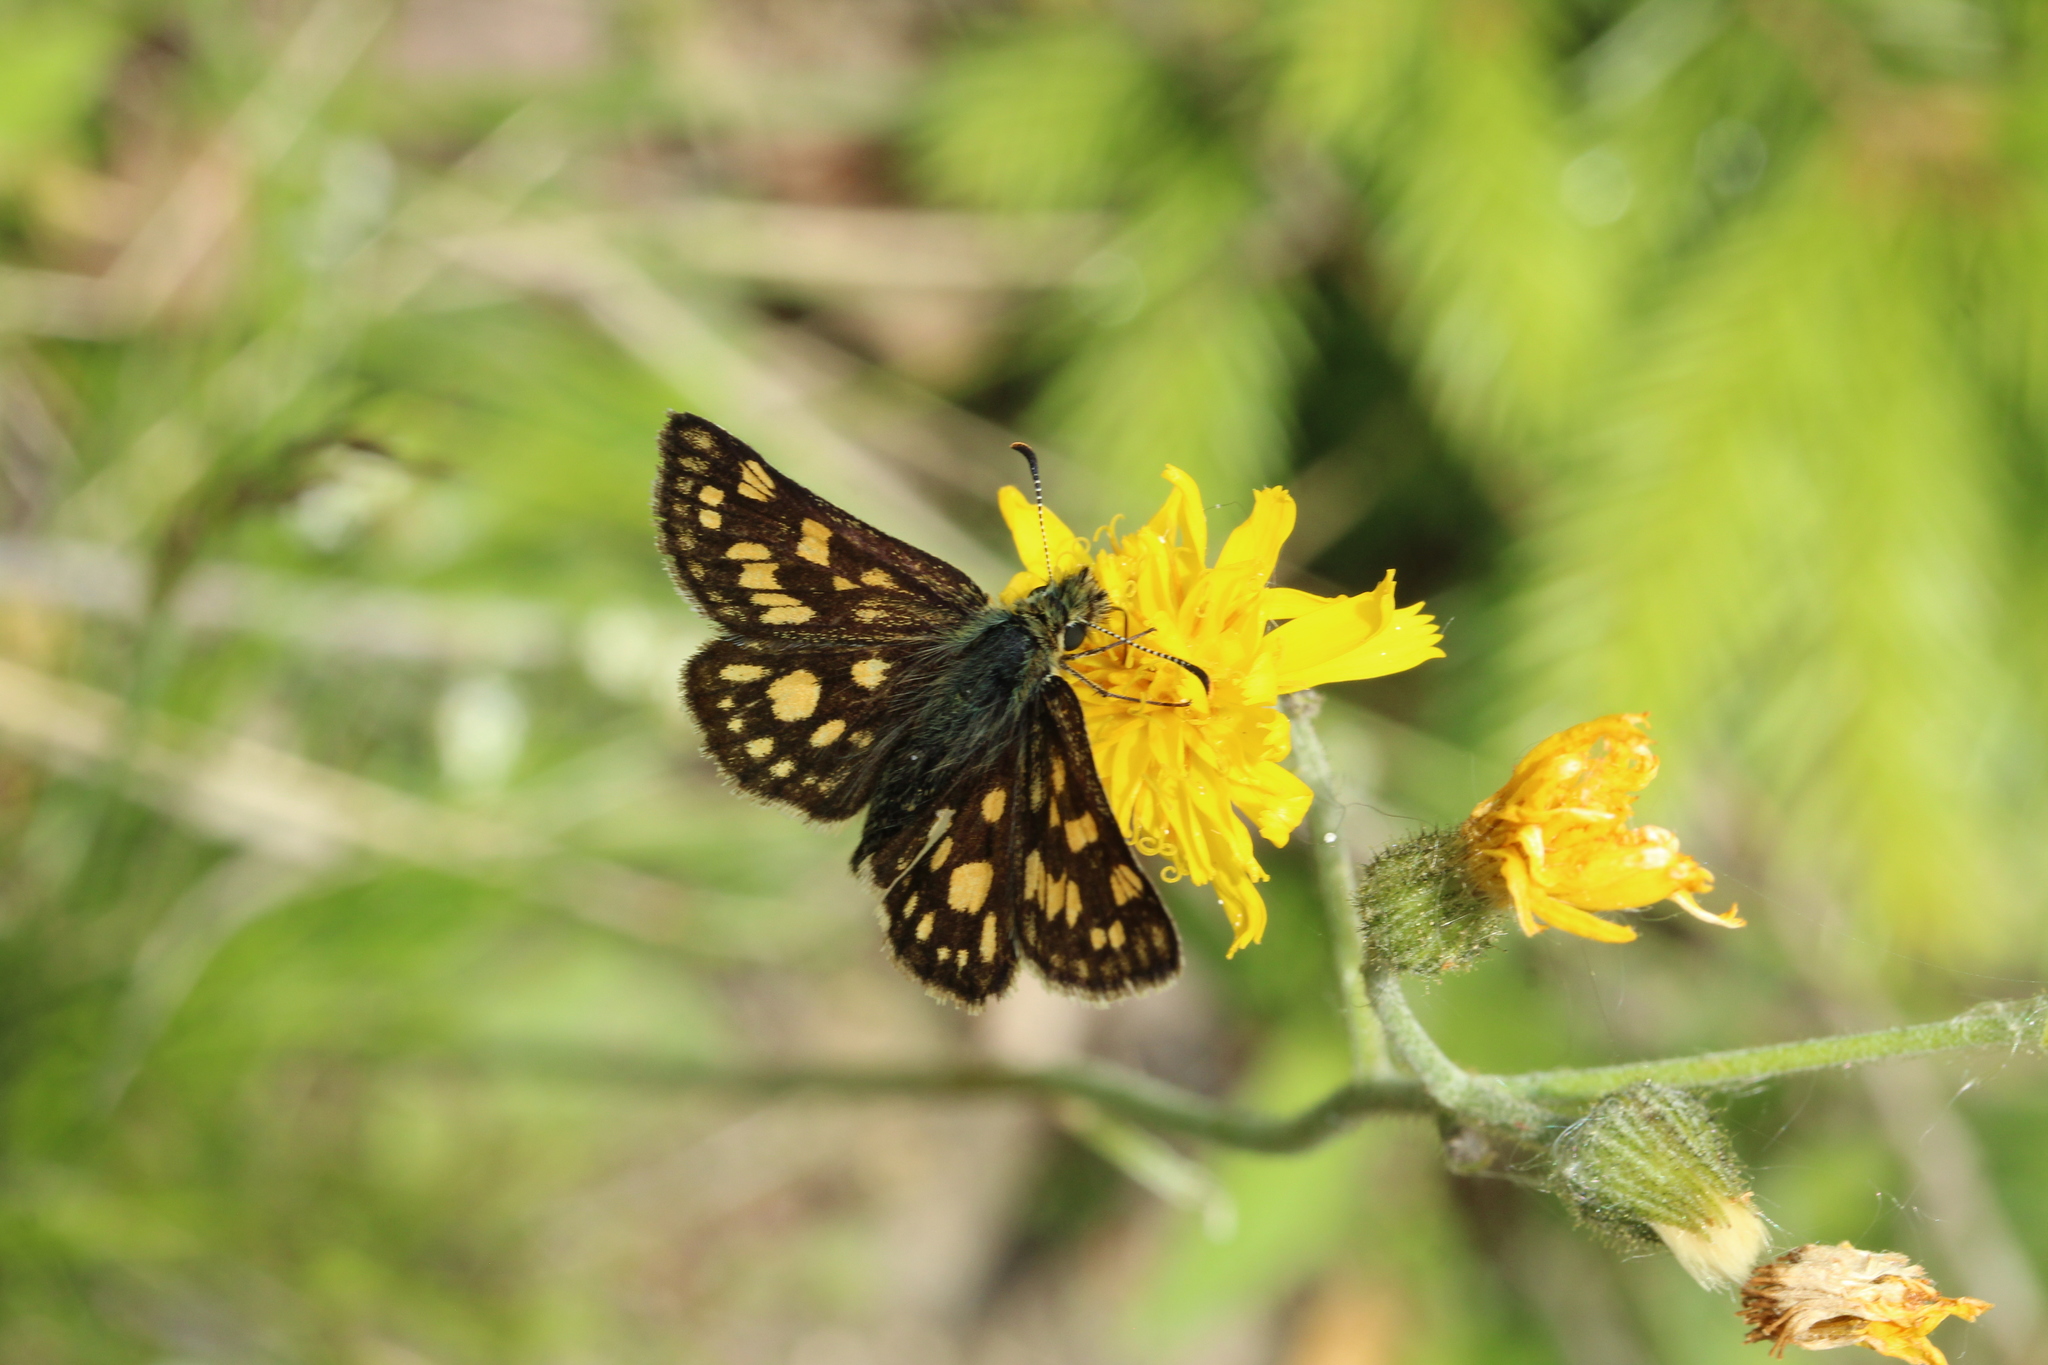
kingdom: Animalia
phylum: Arthropoda
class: Insecta
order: Lepidoptera
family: Hesperiidae
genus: Carterocephalus
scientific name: Carterocephalus palaemon
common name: Chequered skipper
